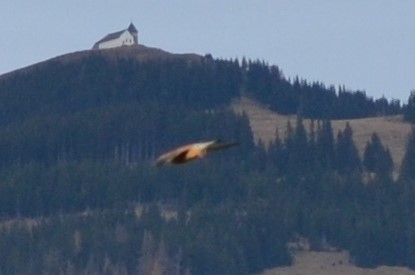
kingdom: Animalia
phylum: Chordata
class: Aves
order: Falconiformes
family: Falconidae
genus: Falco
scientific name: Falco tinnunculus
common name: Common kestrel
